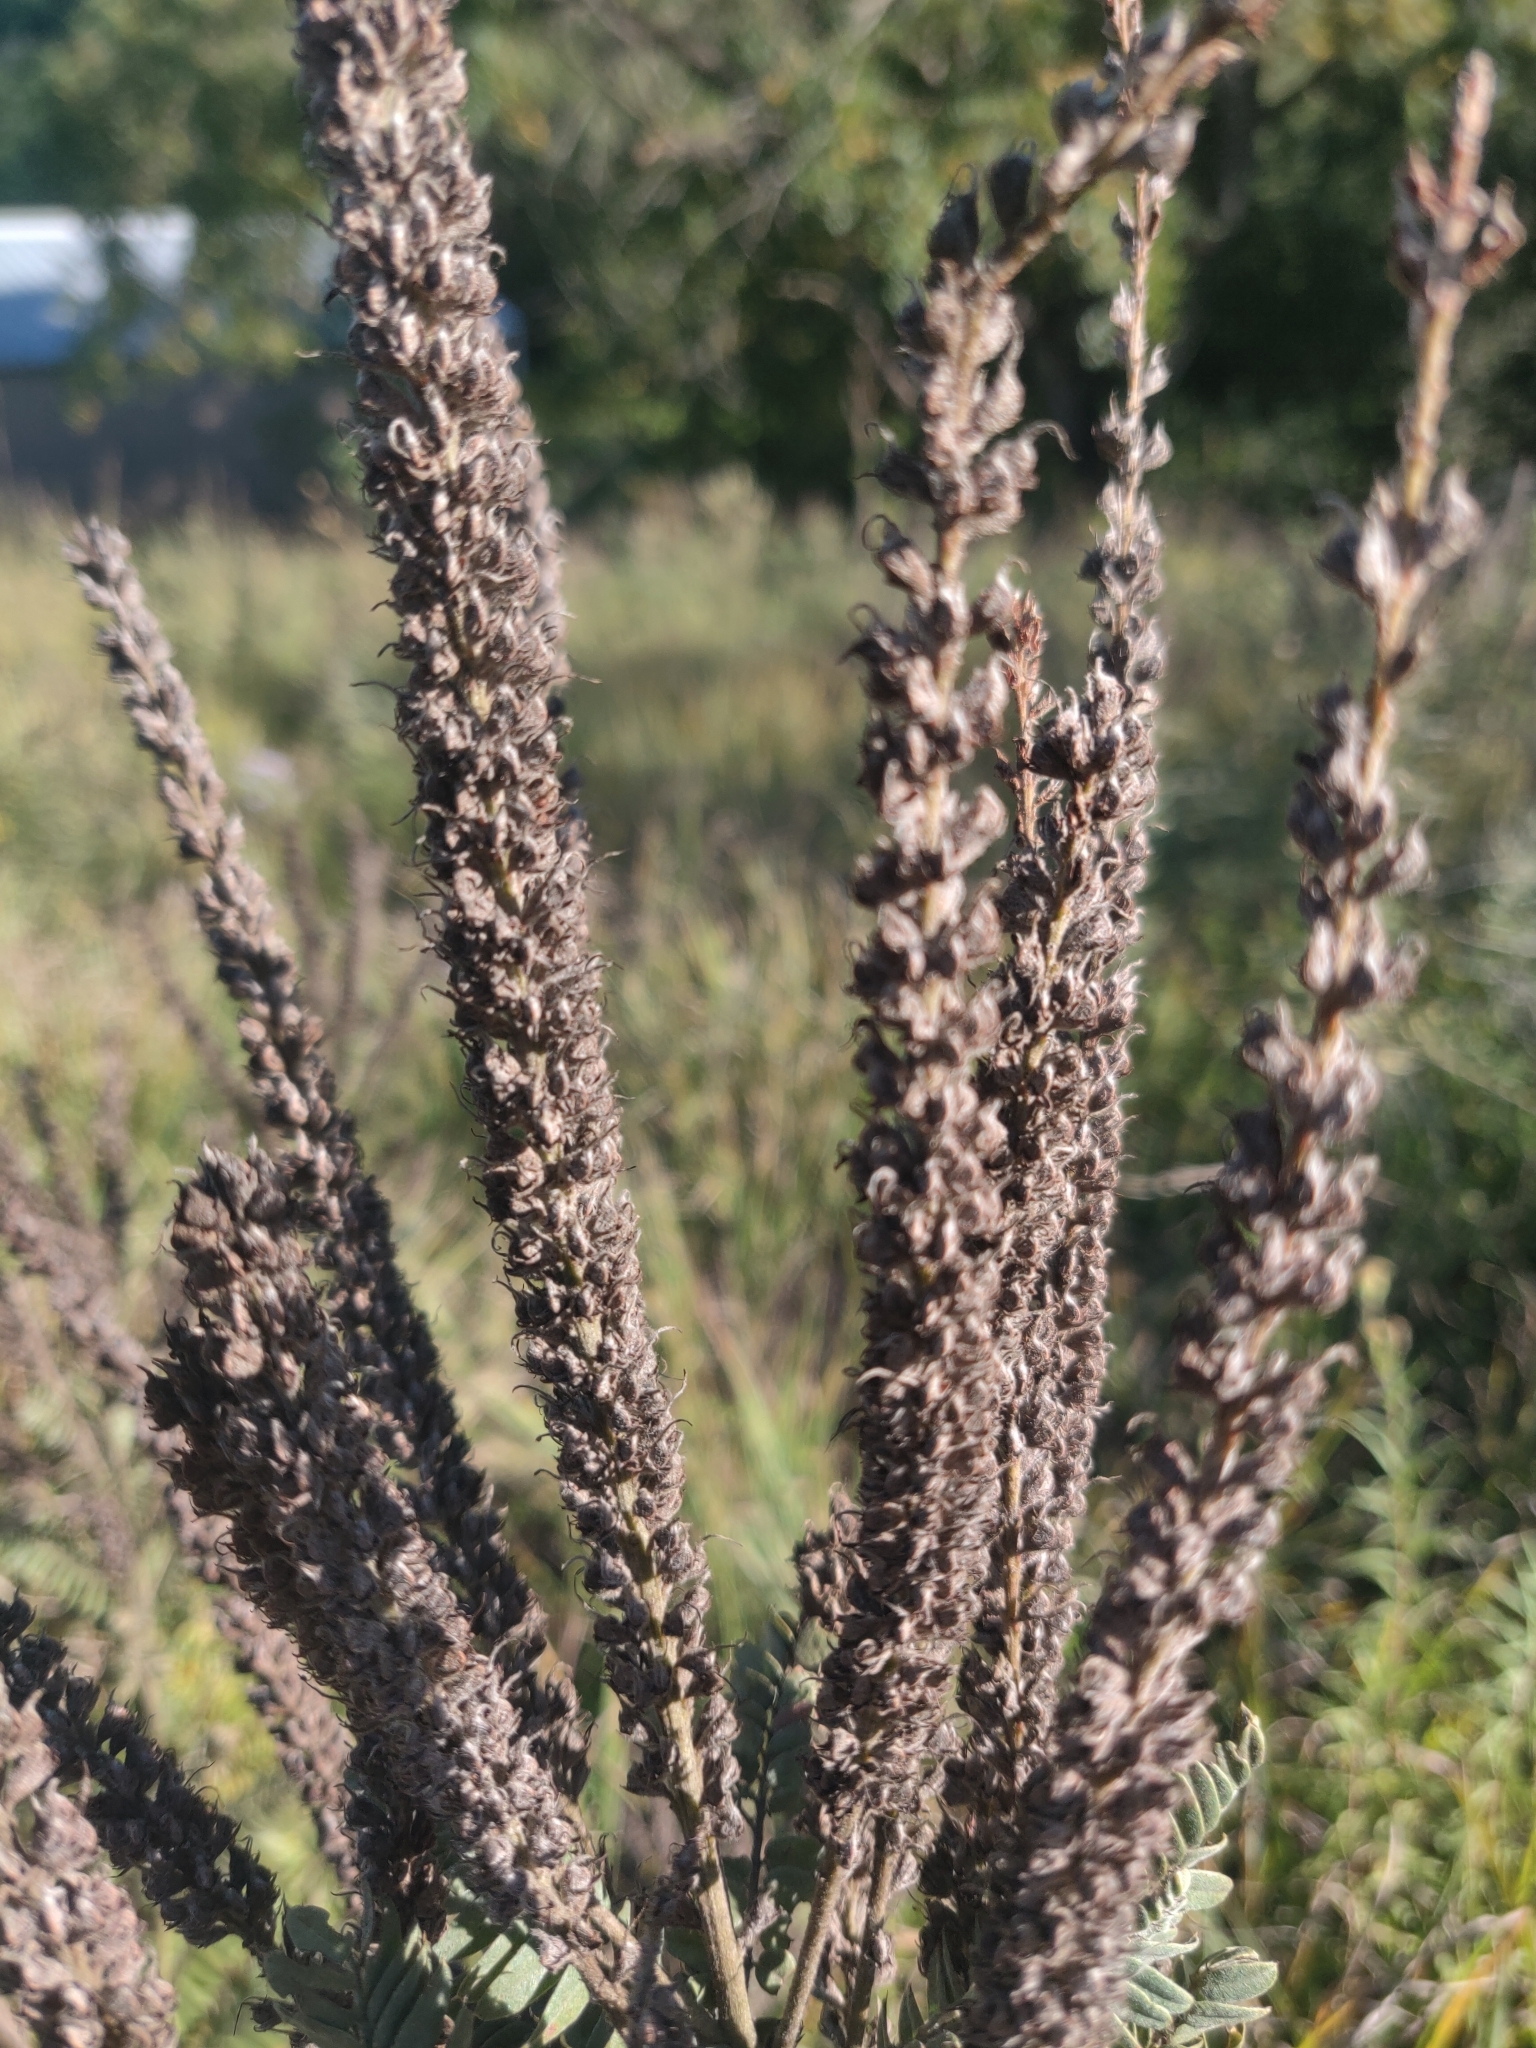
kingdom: Plantae
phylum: Tracheophyta
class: Magnoliopsida
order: Fabales
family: Fabaceae
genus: Amorpha
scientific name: Amorpha canescens
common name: Leadplant
